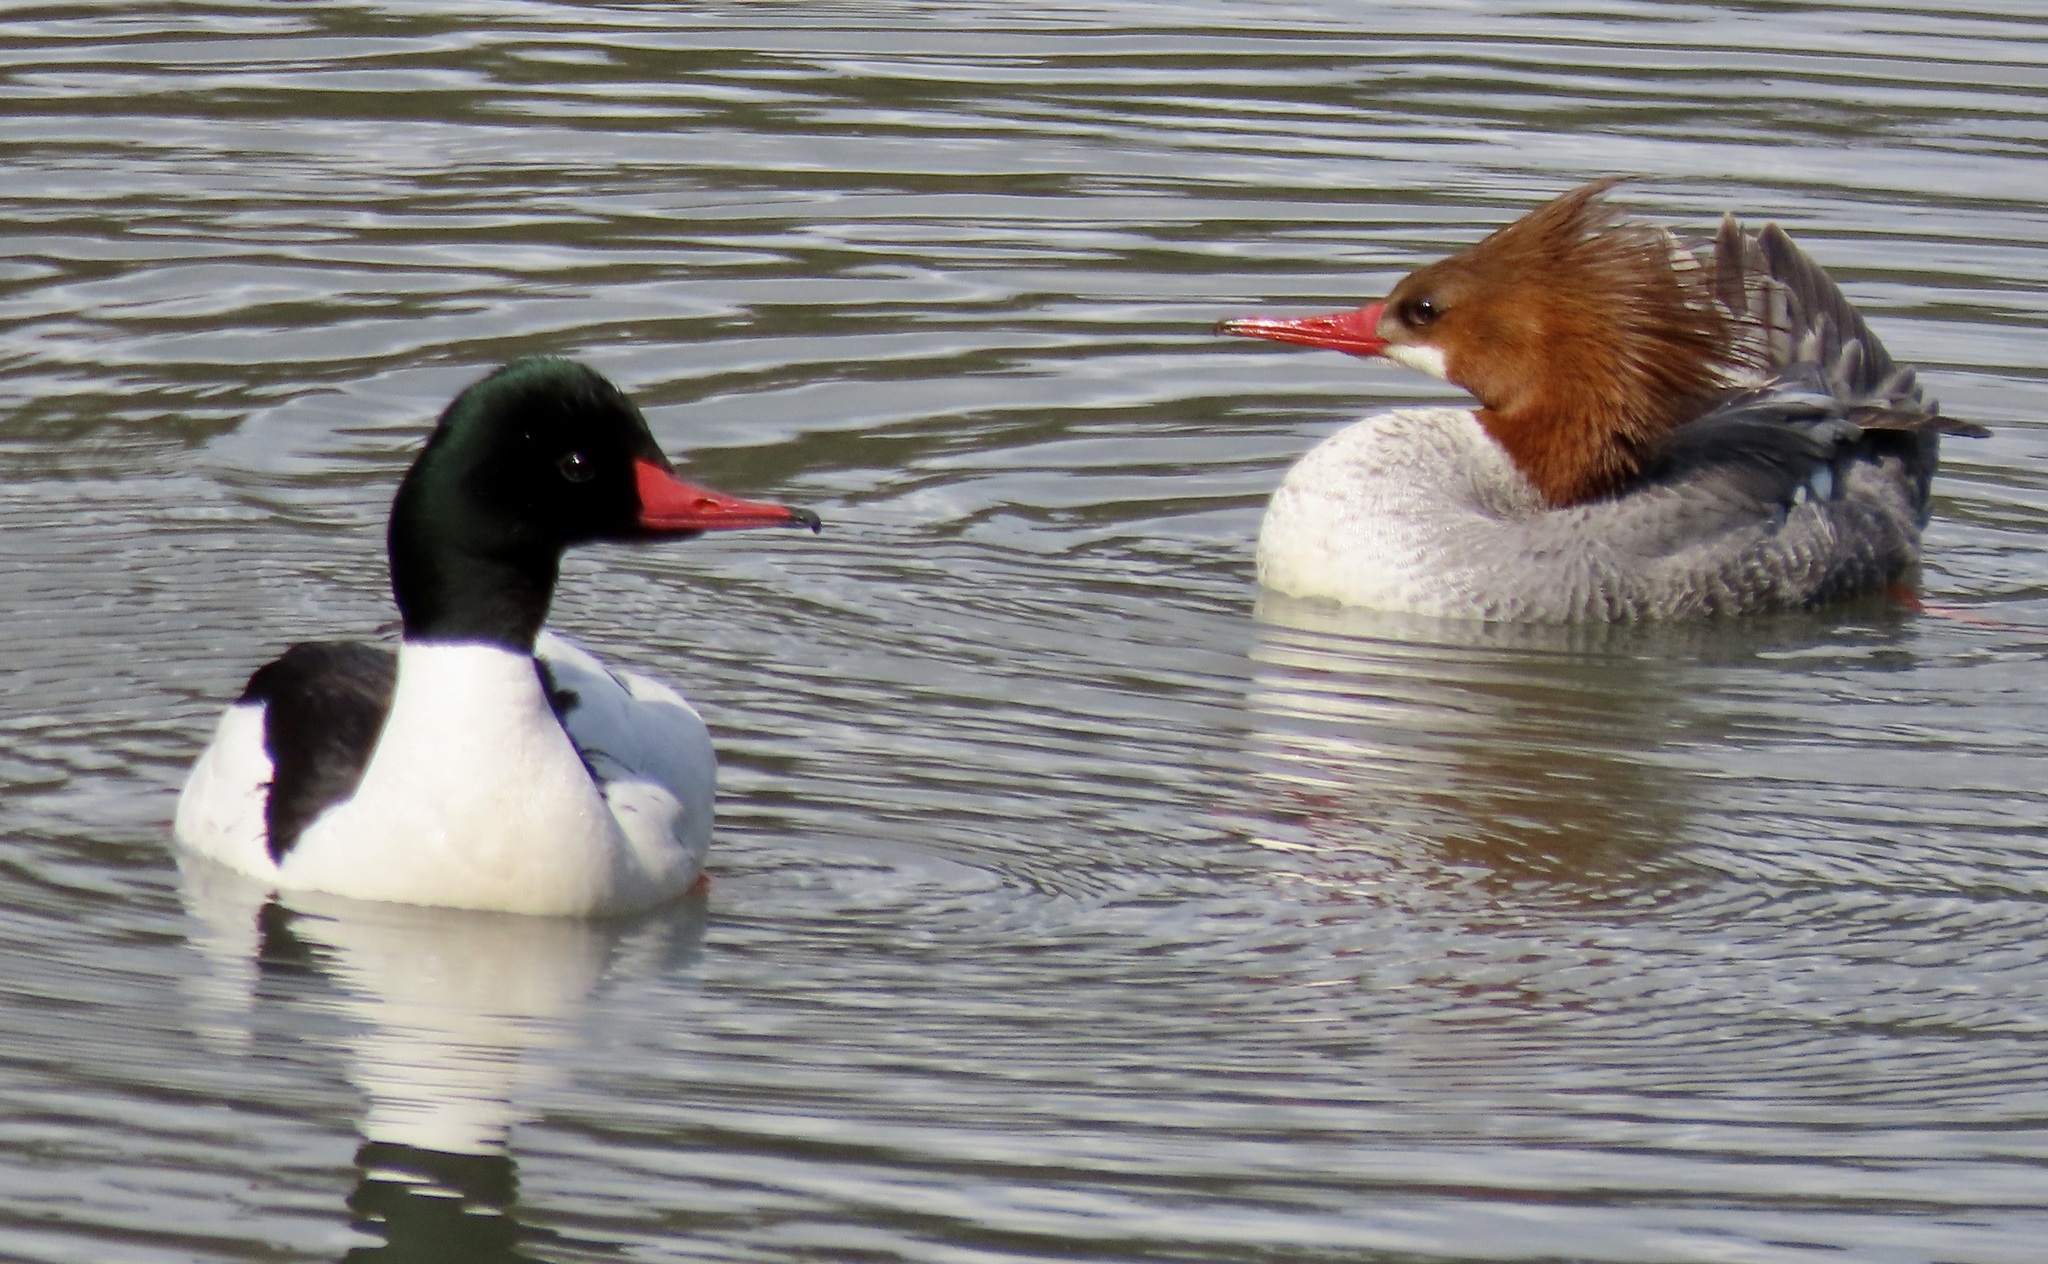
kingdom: Animalia
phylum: Chordata
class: Aves
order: Anseriformes
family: Anatidae
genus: Mergus
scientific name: Mergus merganser
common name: Common merganser
